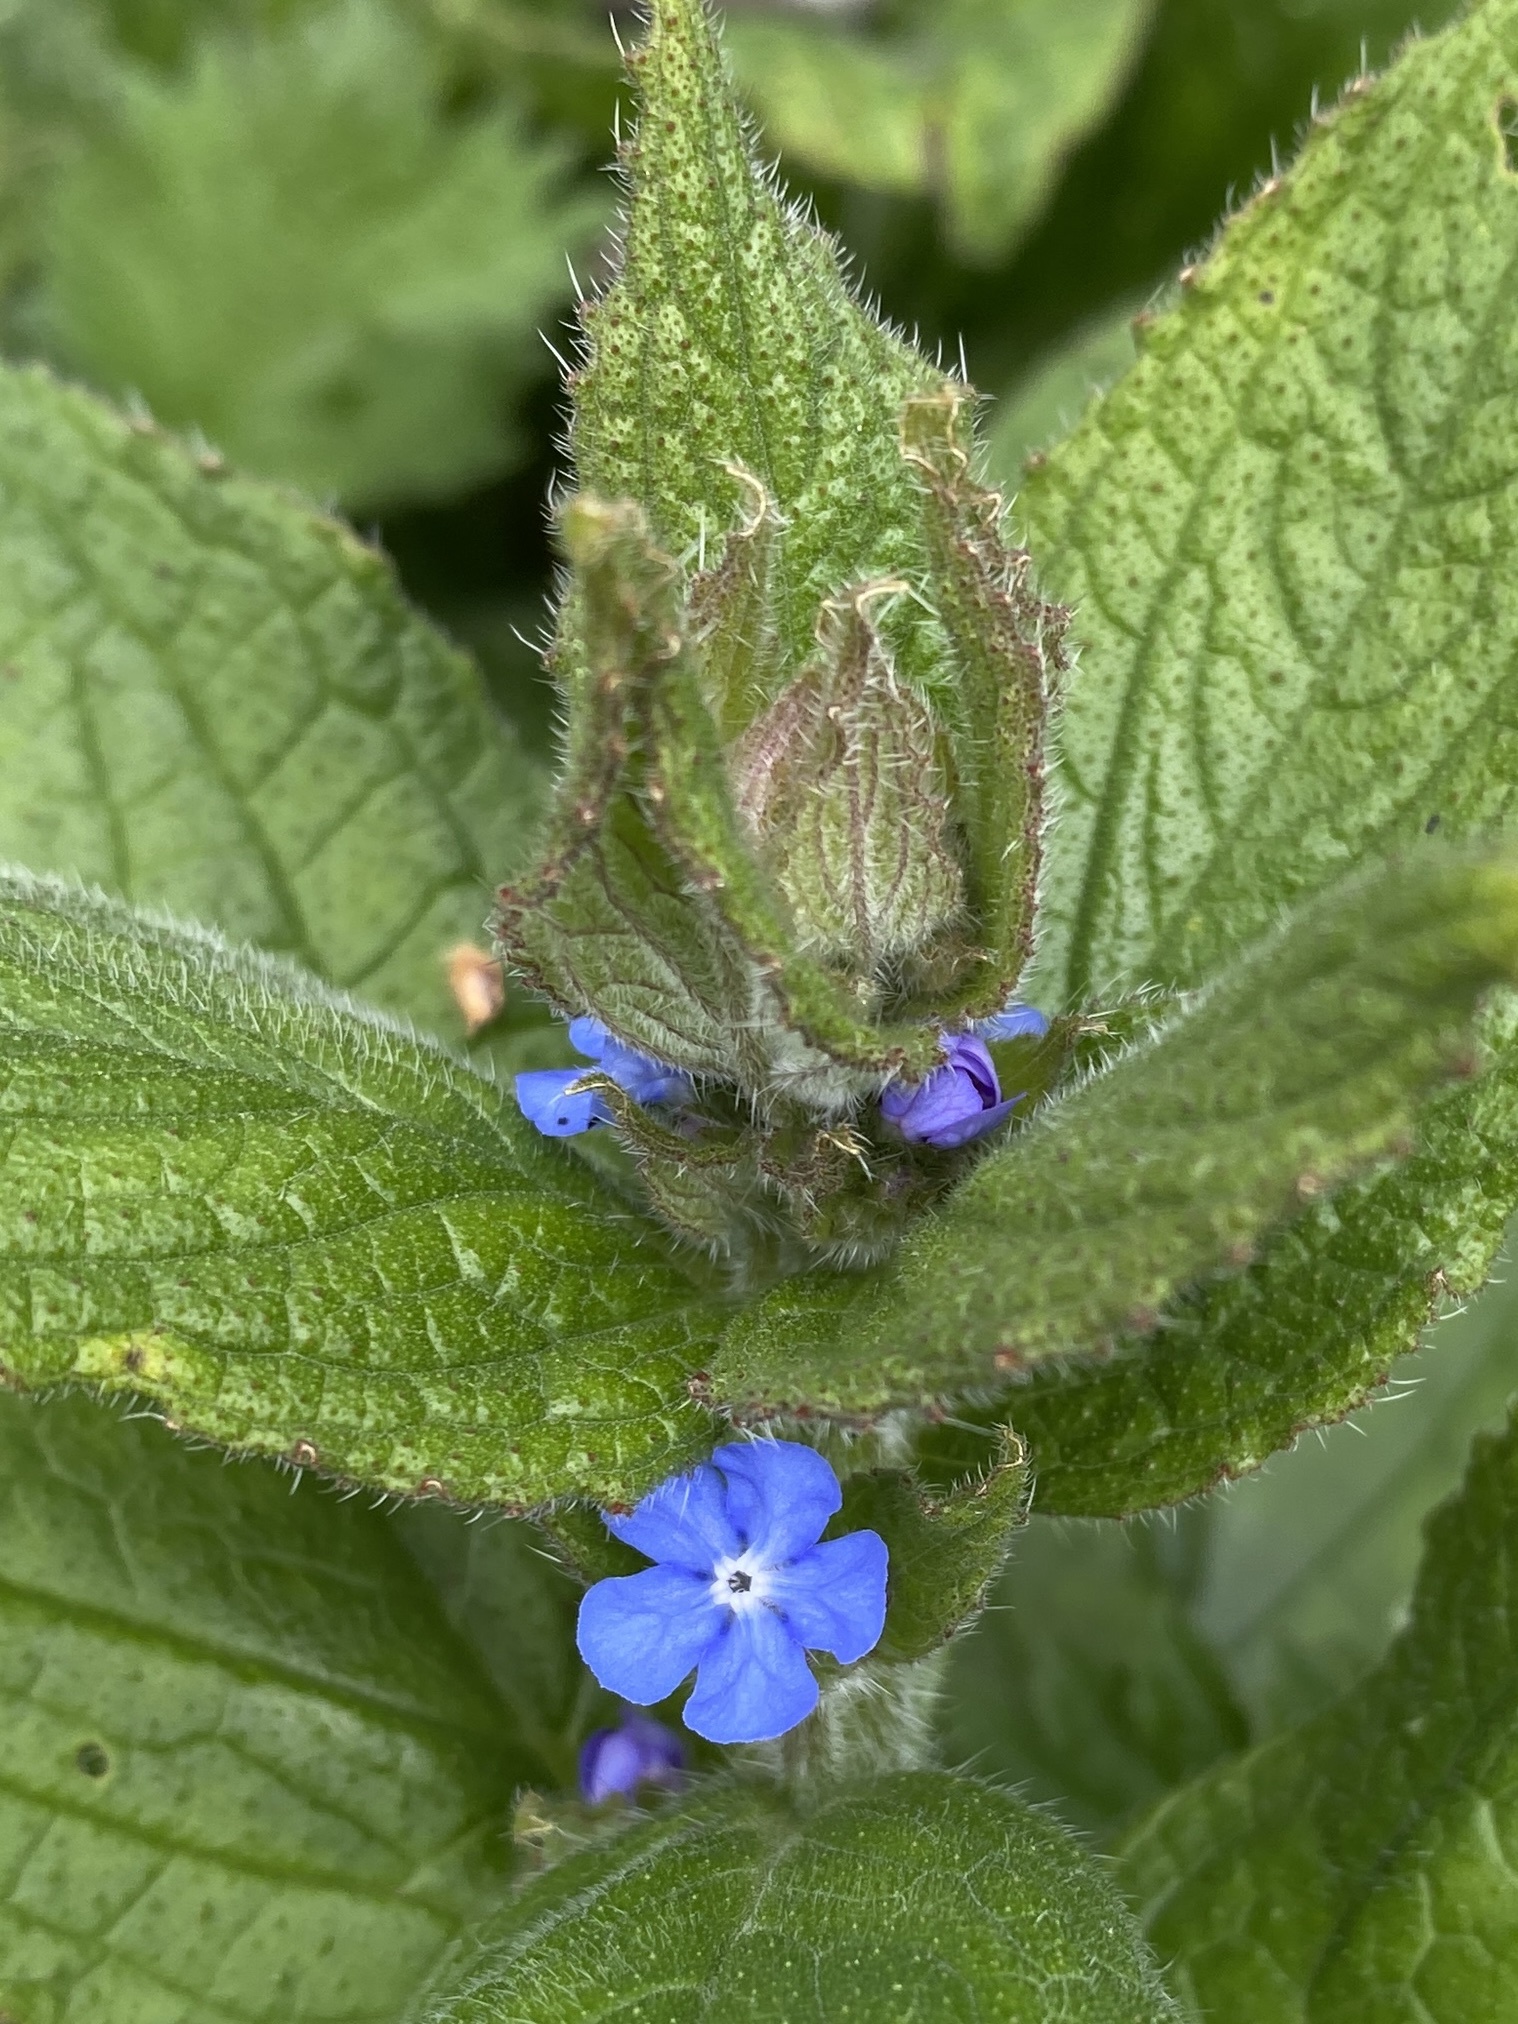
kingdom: Plantae
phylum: Tracheophyta
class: Magnoliopsida
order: Boraginales
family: Boraginaceae
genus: Pentaglottis
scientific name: Pentaglottis sempervirens
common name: Green alkanet
